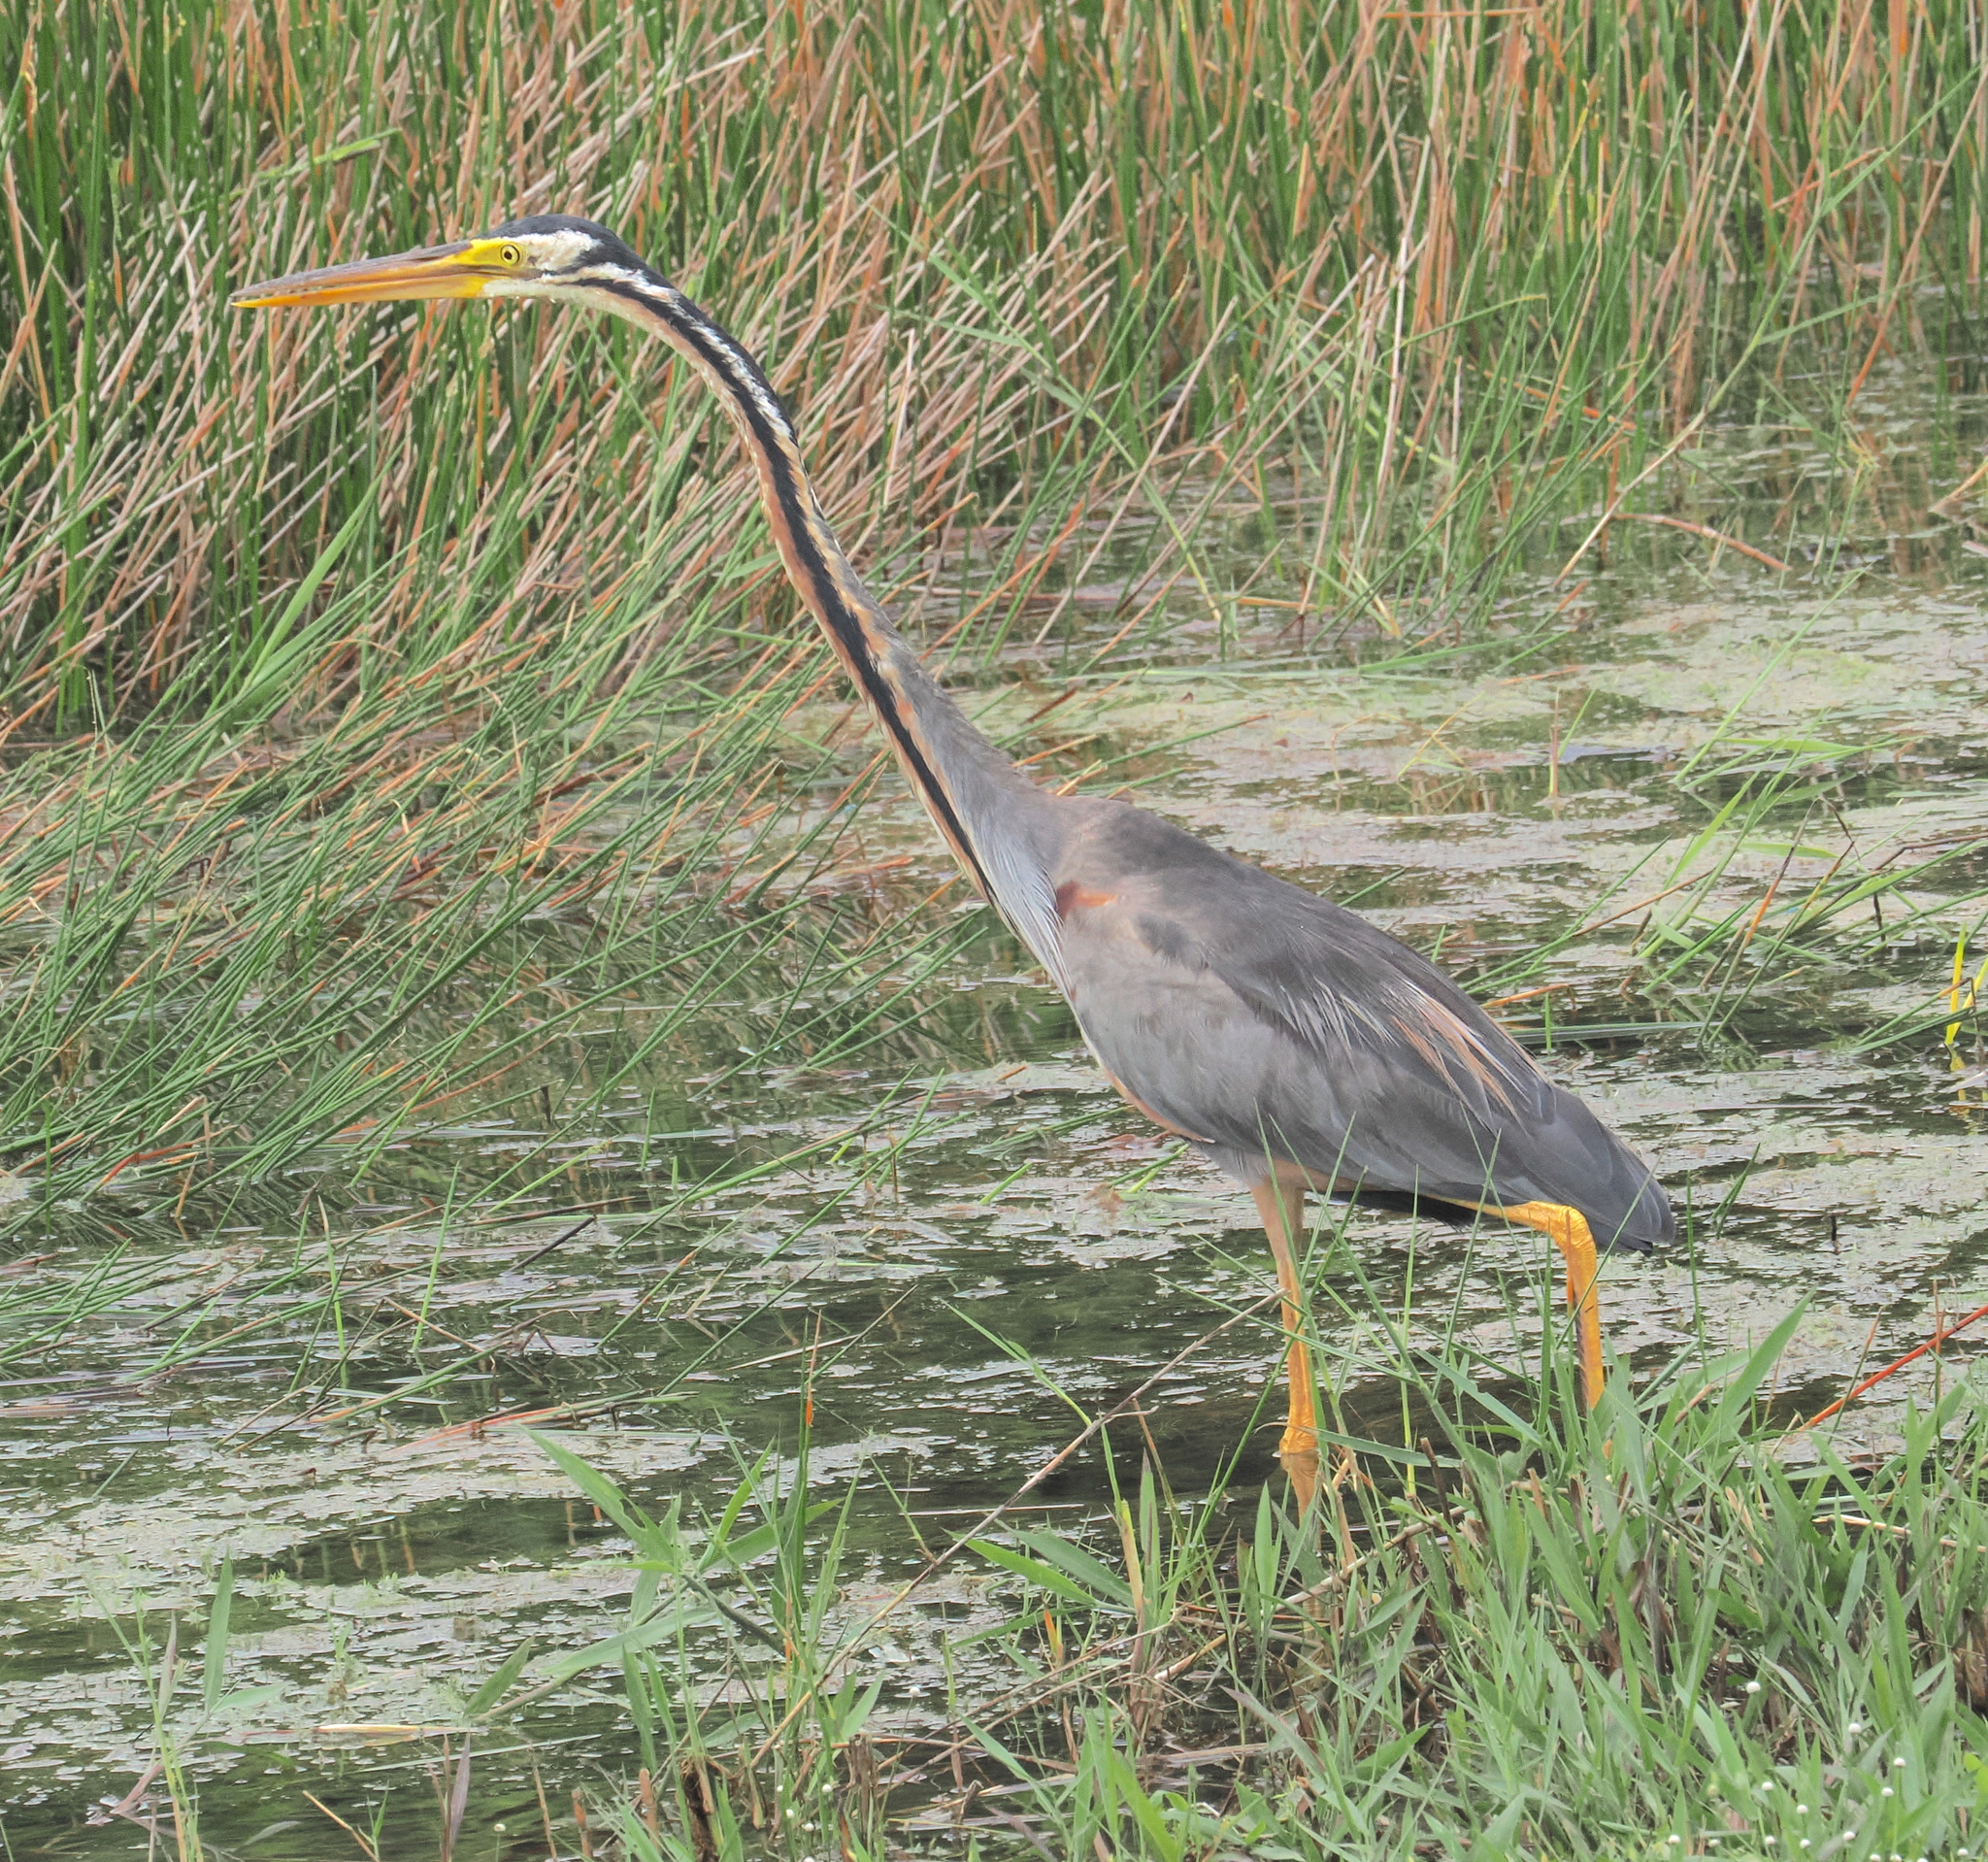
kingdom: Animalia
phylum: Chordata
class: Aves
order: Pelecaniformes
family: Ardeidae
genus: Ardea
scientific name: Ardea purpurea
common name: Purple heron
